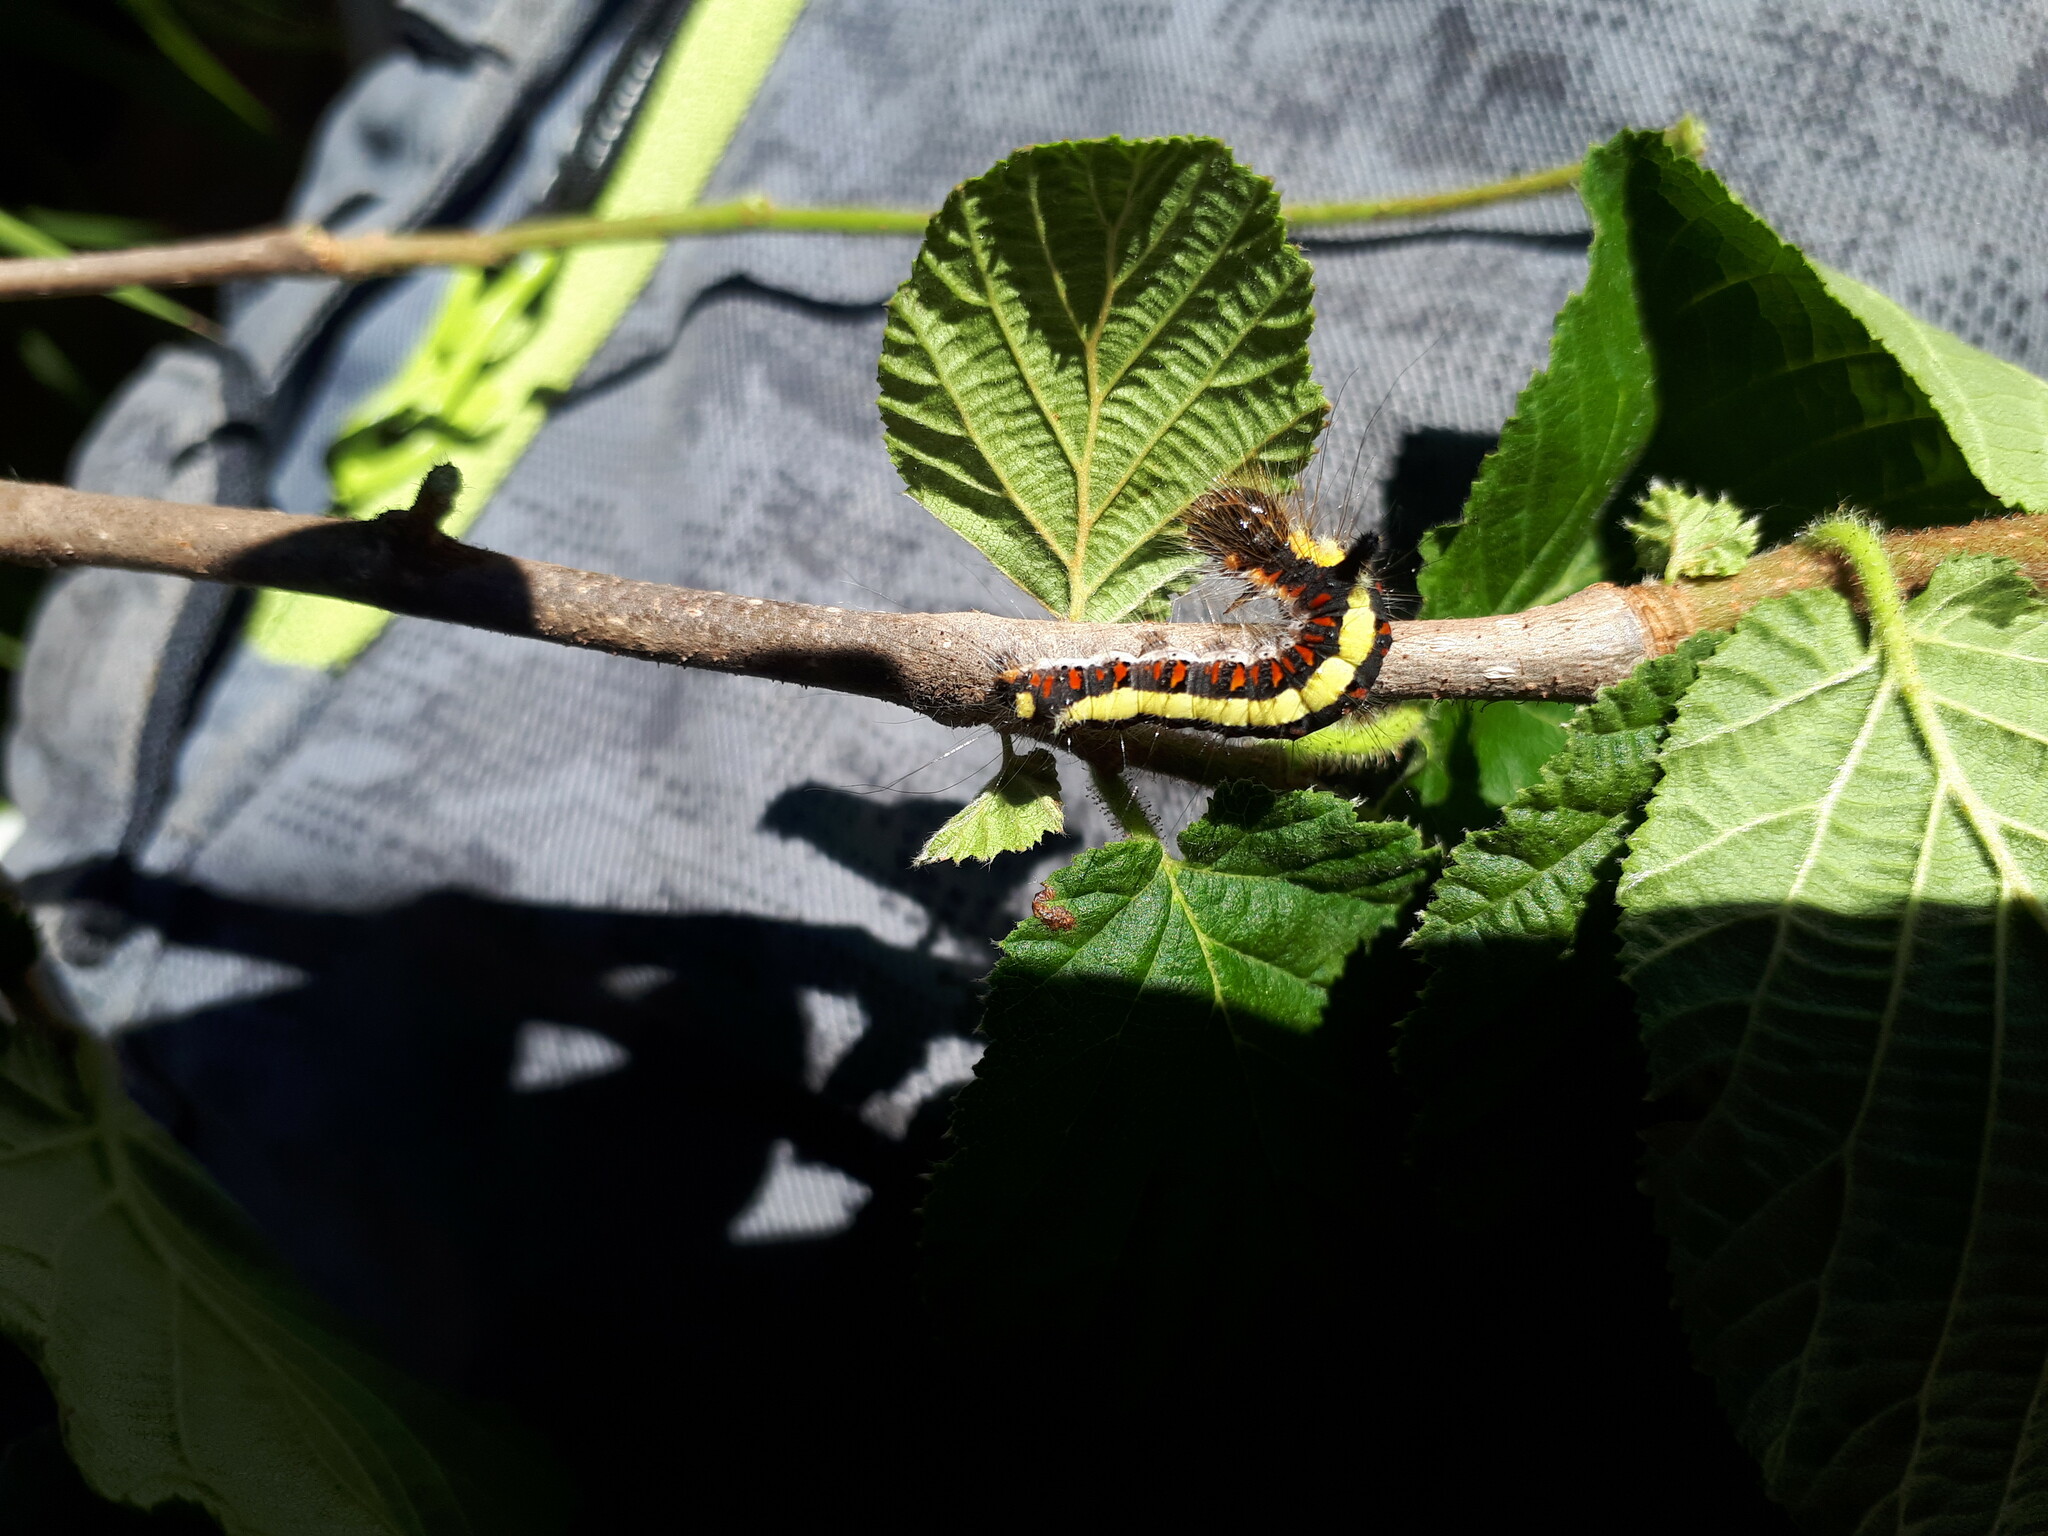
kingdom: Animalia
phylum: Arthropoda
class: Insecta
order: Lepidoptera
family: Noctuidae
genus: Acronicta
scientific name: Acronicta psi
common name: Grey dagger
